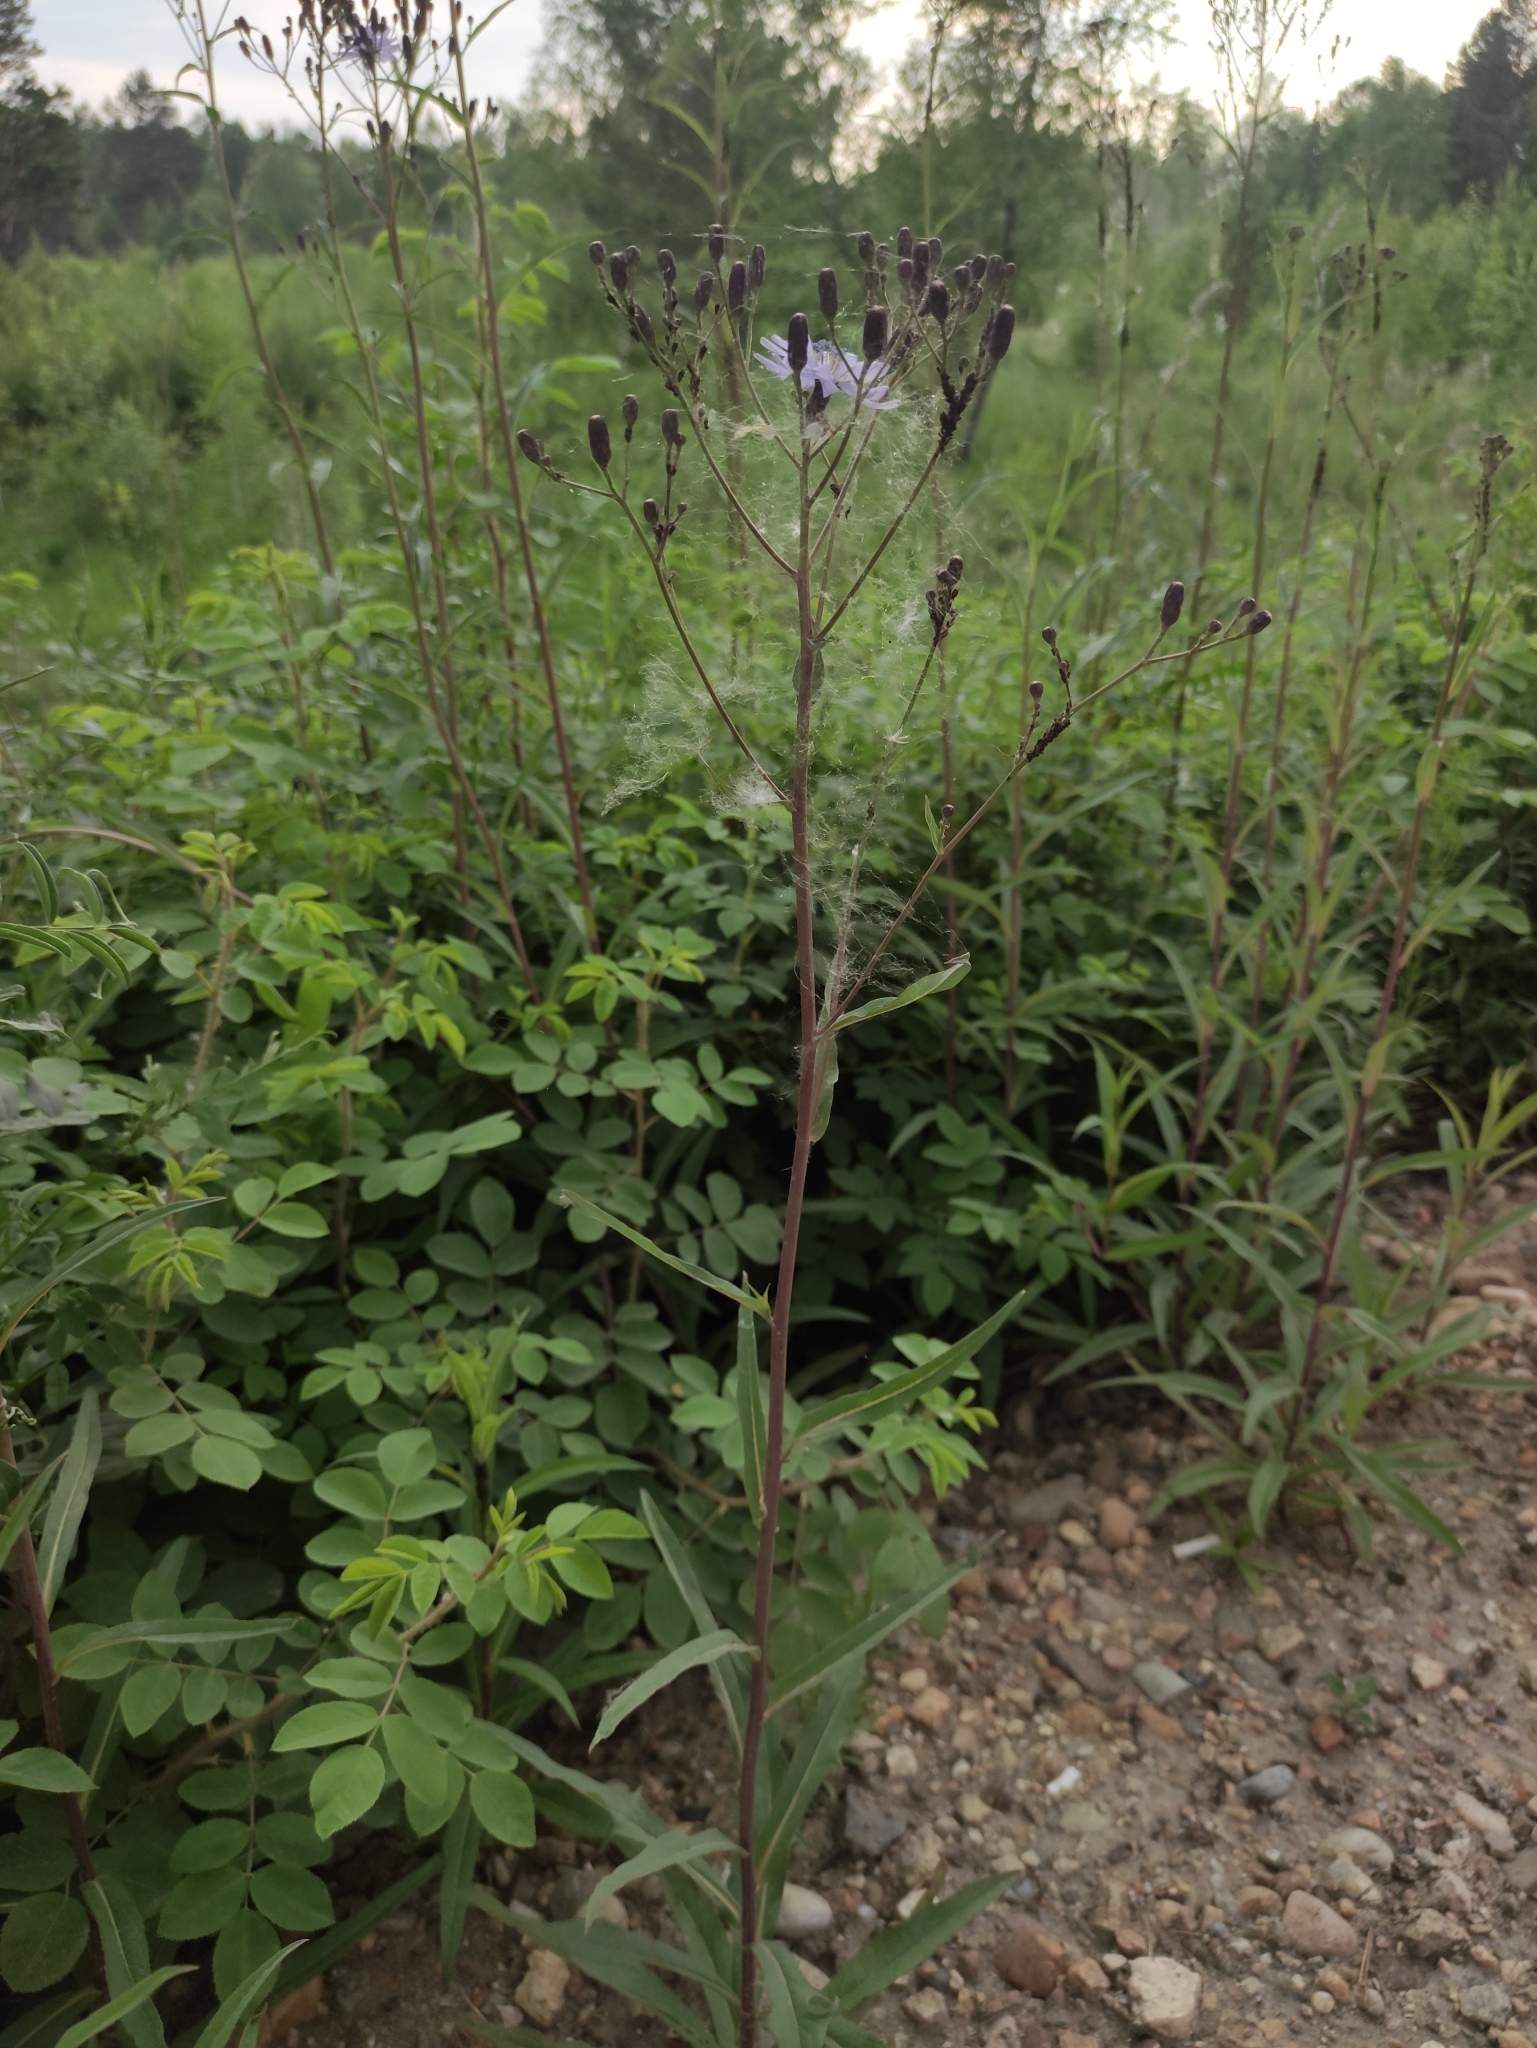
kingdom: Plantae
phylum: Tracheophyta
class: Magnoliopsida
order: Asterales
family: Asteraceae
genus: Lactuca
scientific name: Lactuca sibirica
